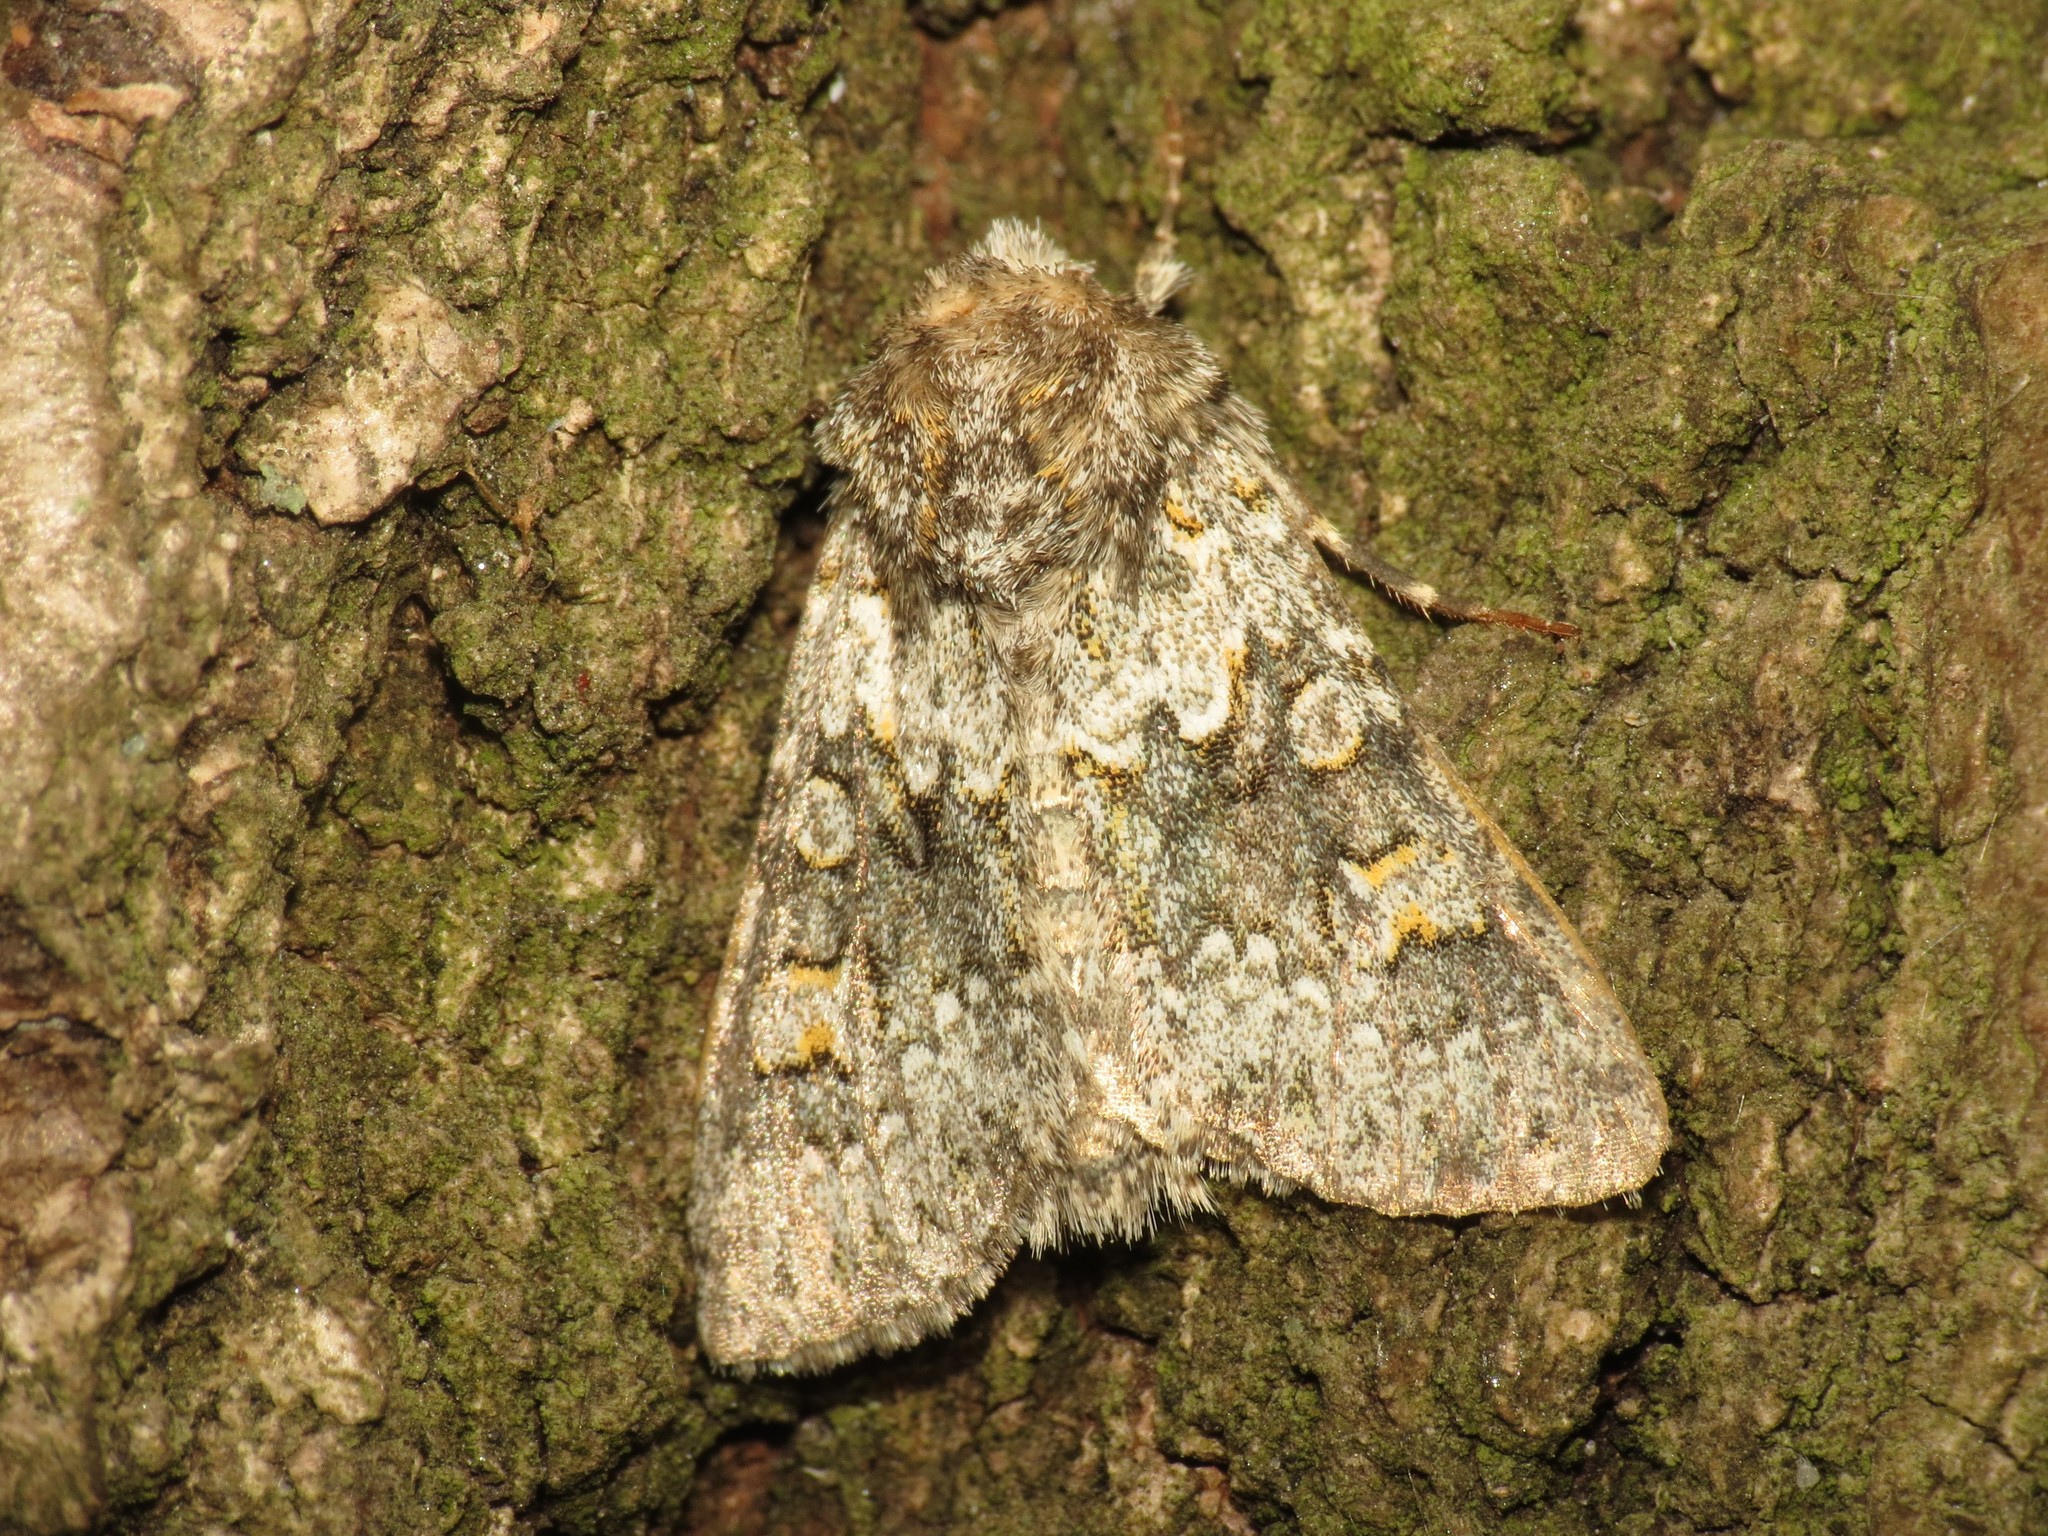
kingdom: Animalia
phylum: Arthropoda
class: Insecta
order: Lepidoptera
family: Noctuidae
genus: Hecatera
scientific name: Hecatera dysodea
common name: Small ranunculus
